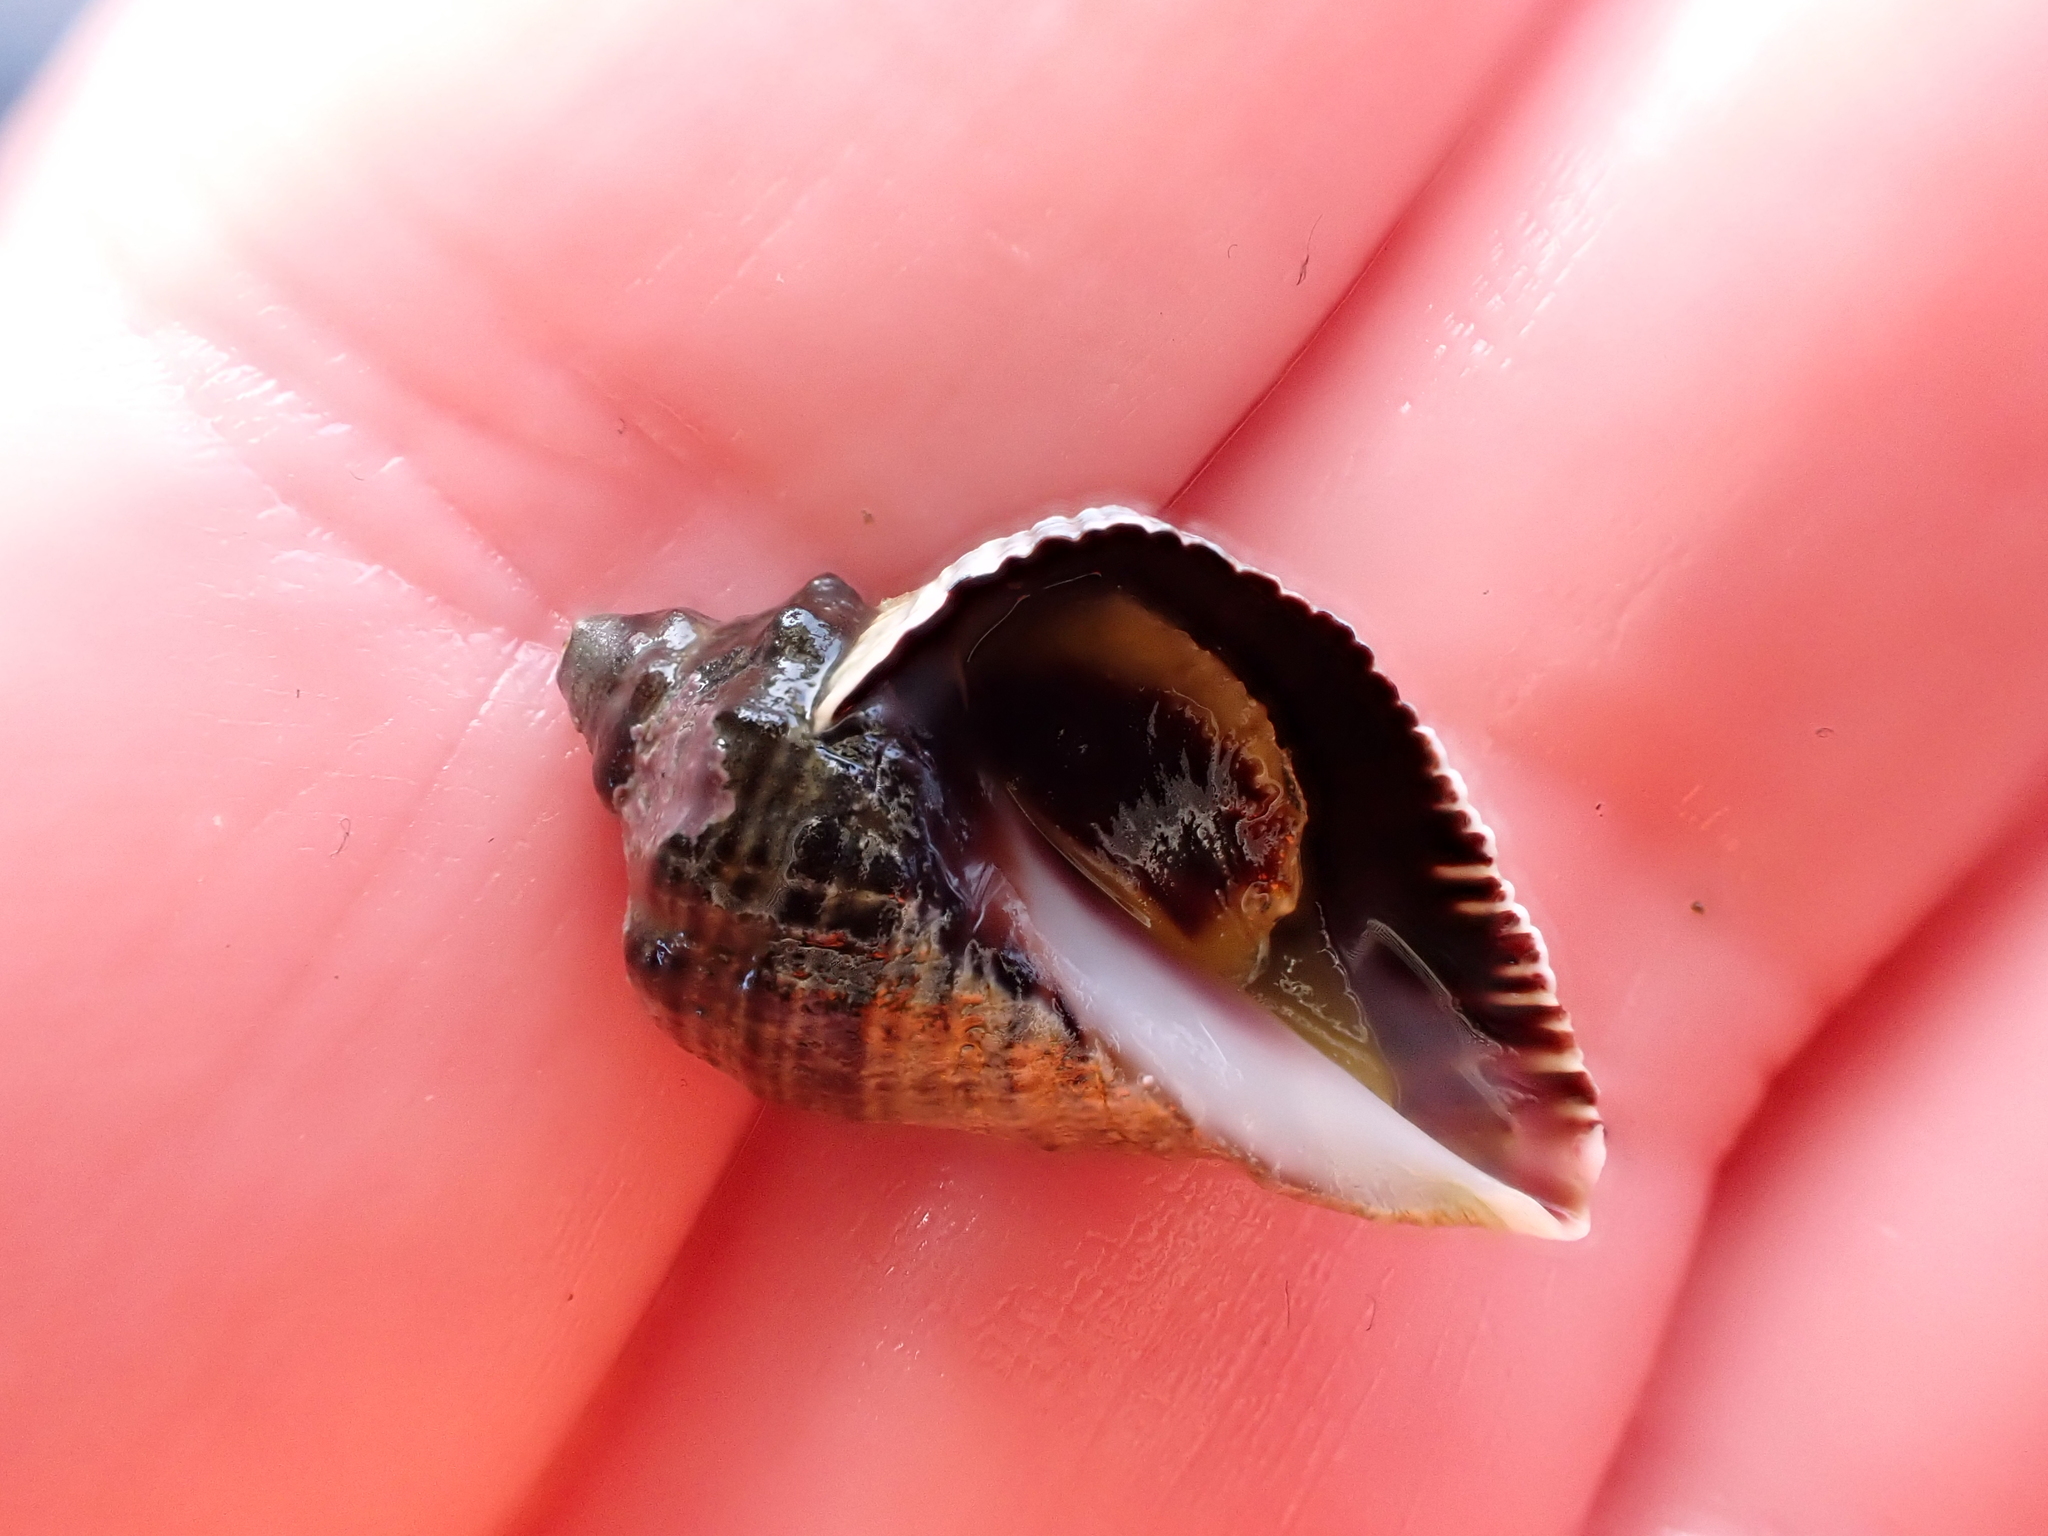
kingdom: Animalia
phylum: Mollusca
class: Gastropoda
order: Neogastropoda
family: Muricidae
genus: Haustrum
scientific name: Haustrum haustorium
